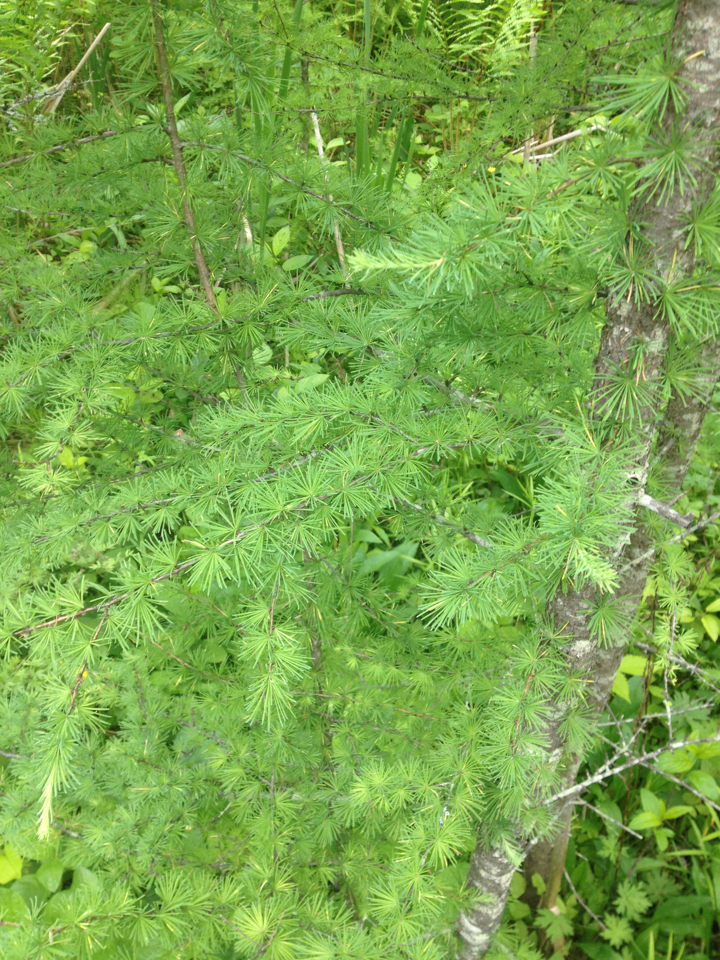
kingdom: Plantae
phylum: Tracheophyta
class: Pinopsida
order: Pinales
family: Pinaceae
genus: Larix
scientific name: Larix laricina
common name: American larch
